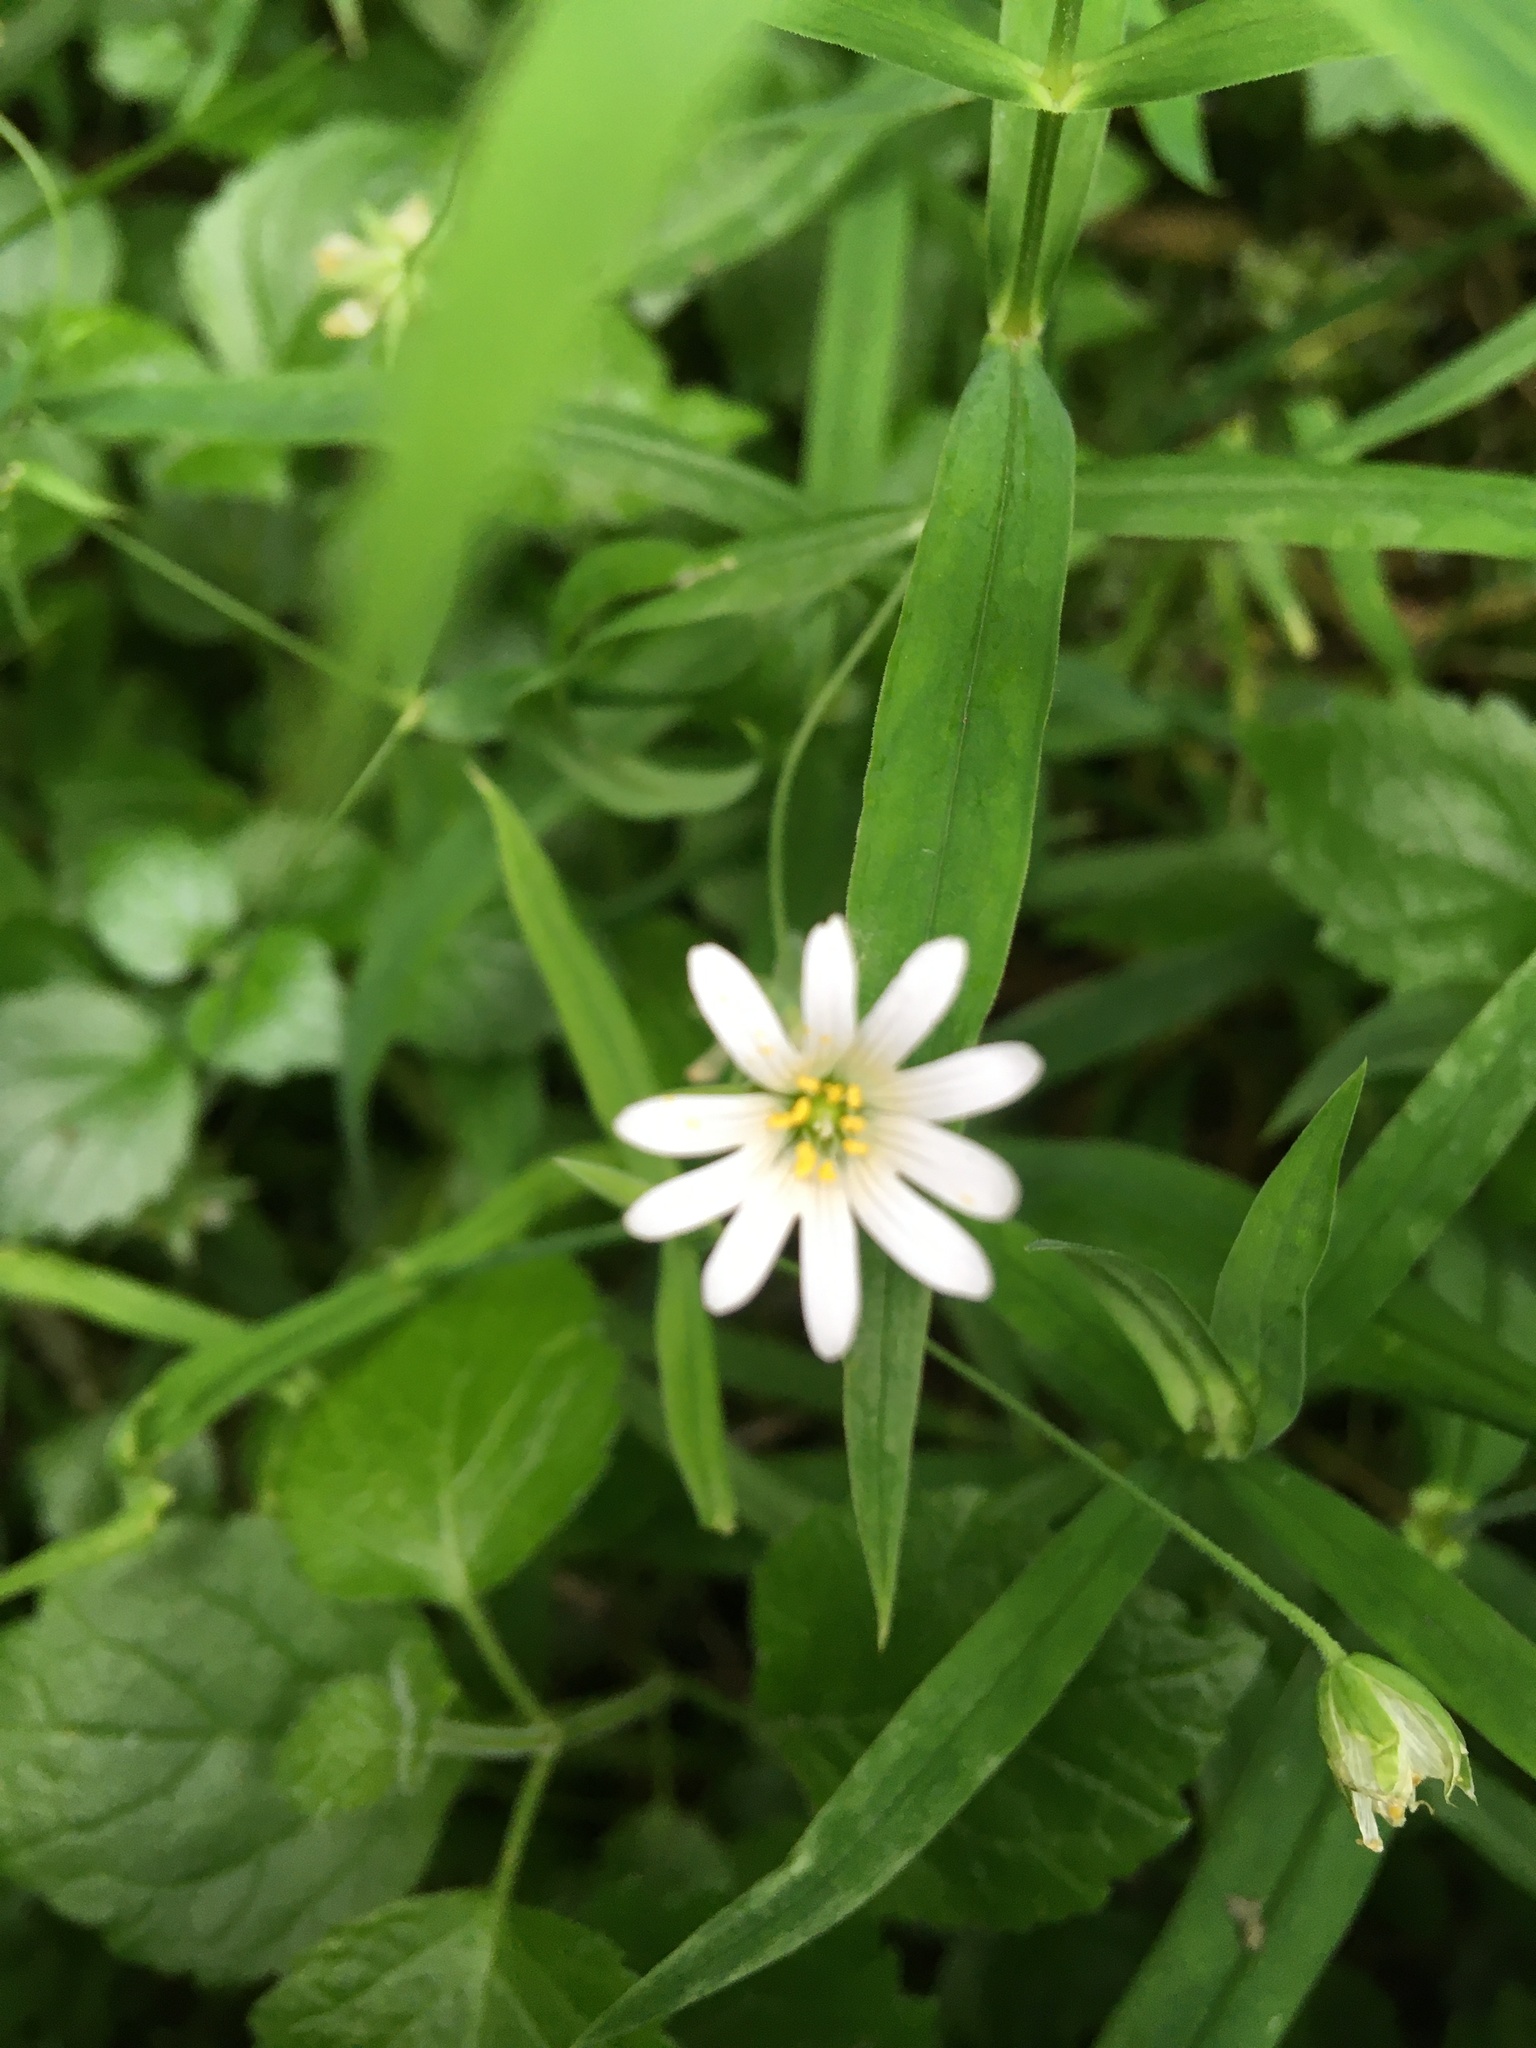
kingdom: Plantae
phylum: Tracheophyta
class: Magnoliopsida
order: Caryophyllales
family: Caryophyllaceae
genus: Rabelera
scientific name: Rabelera holostea
